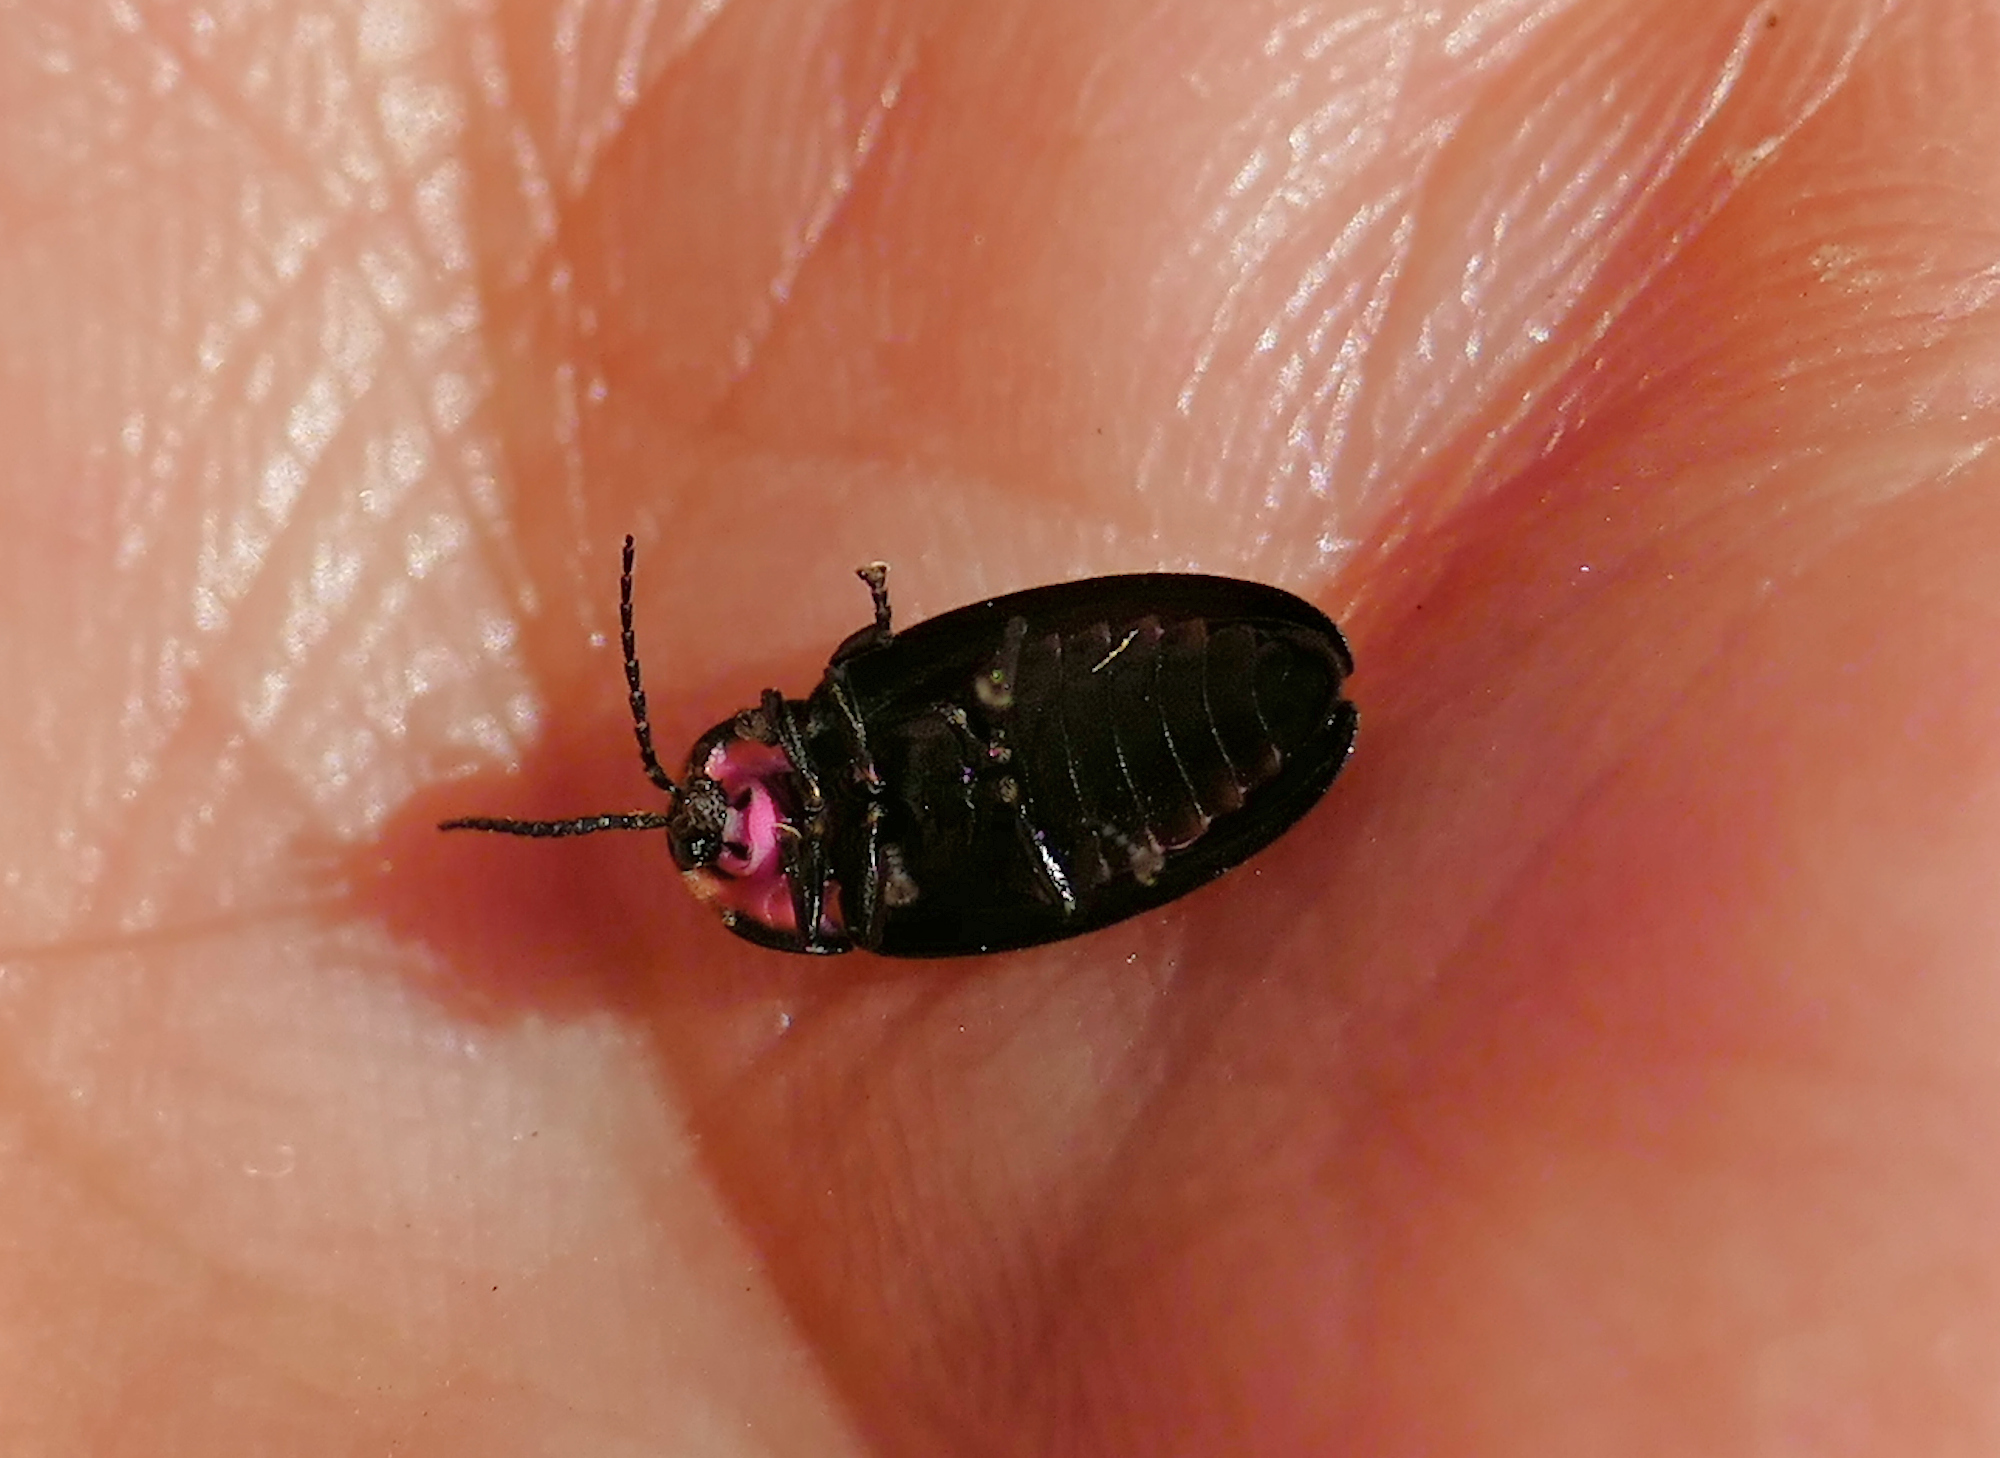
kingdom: Animalia
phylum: Arthropoda
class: Insecta
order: Coleoptera
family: Lampyridae
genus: Photinus
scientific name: Photinus corrusca
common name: Winter firefly
